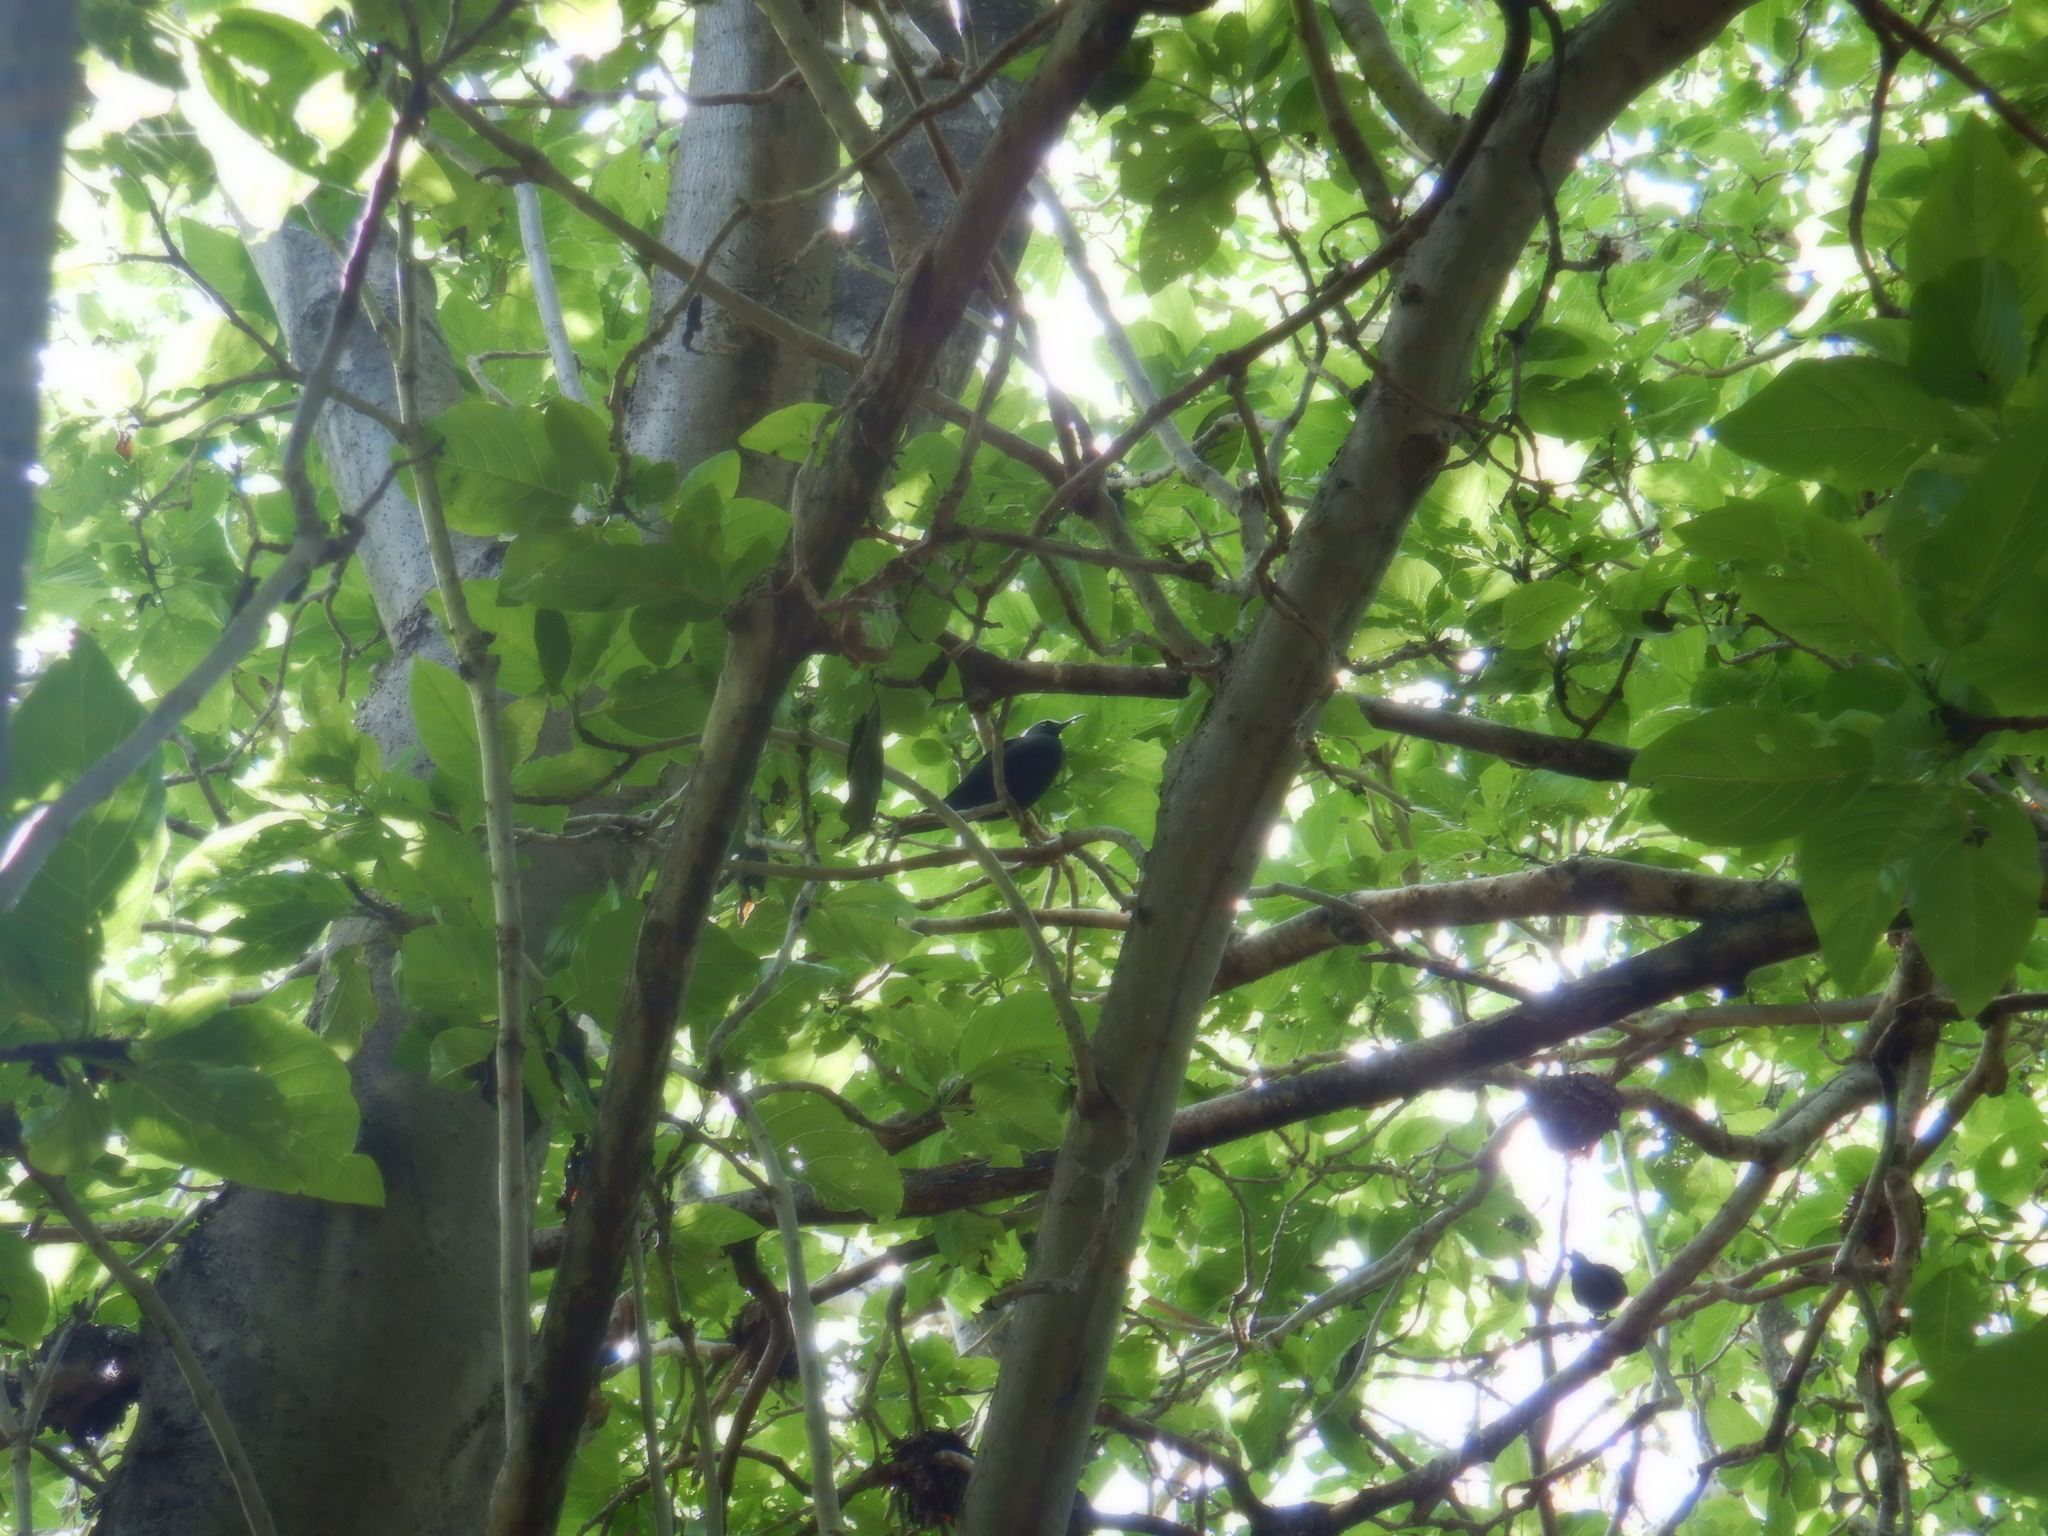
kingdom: Animalia
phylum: Chordata
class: Aves
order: Charadriiformes
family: Laridae
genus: Anous
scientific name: Anous minutus
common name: Black noddy
